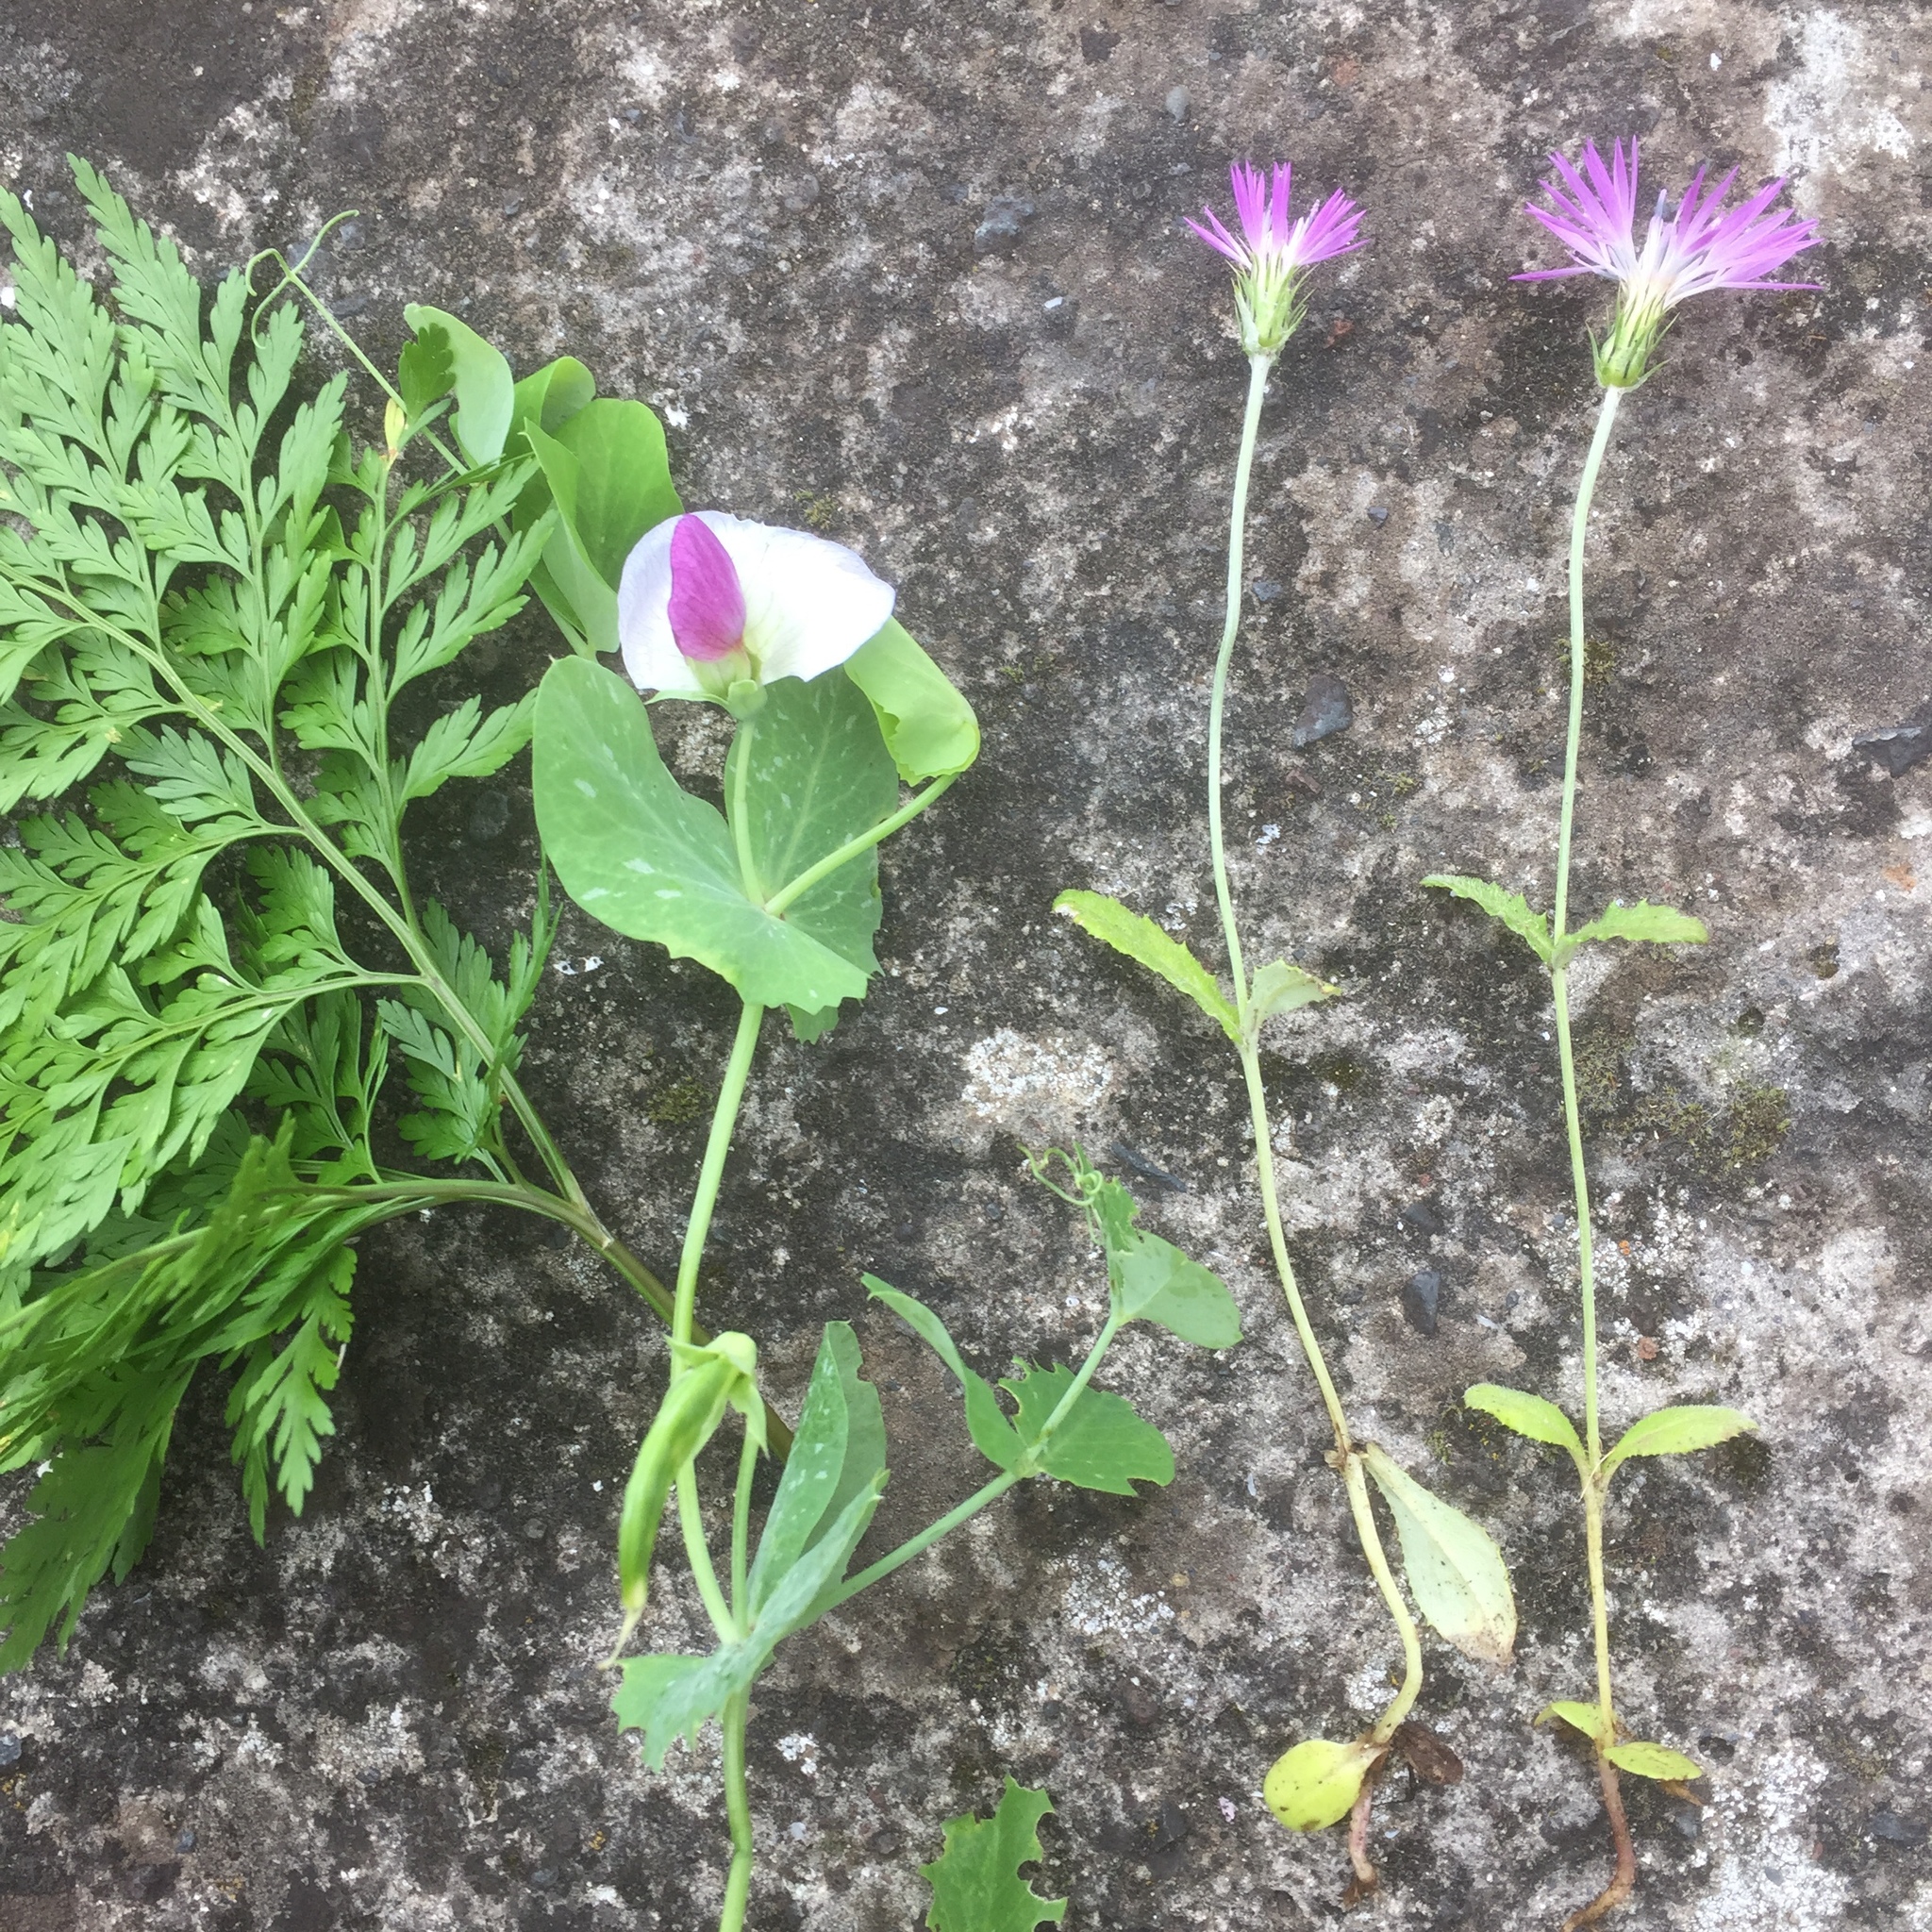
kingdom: Plantae
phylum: Tracheophyta
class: Magnoliopsida
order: Asterales
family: Asteraceae
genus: Galactites
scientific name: Galactites tomentosa
